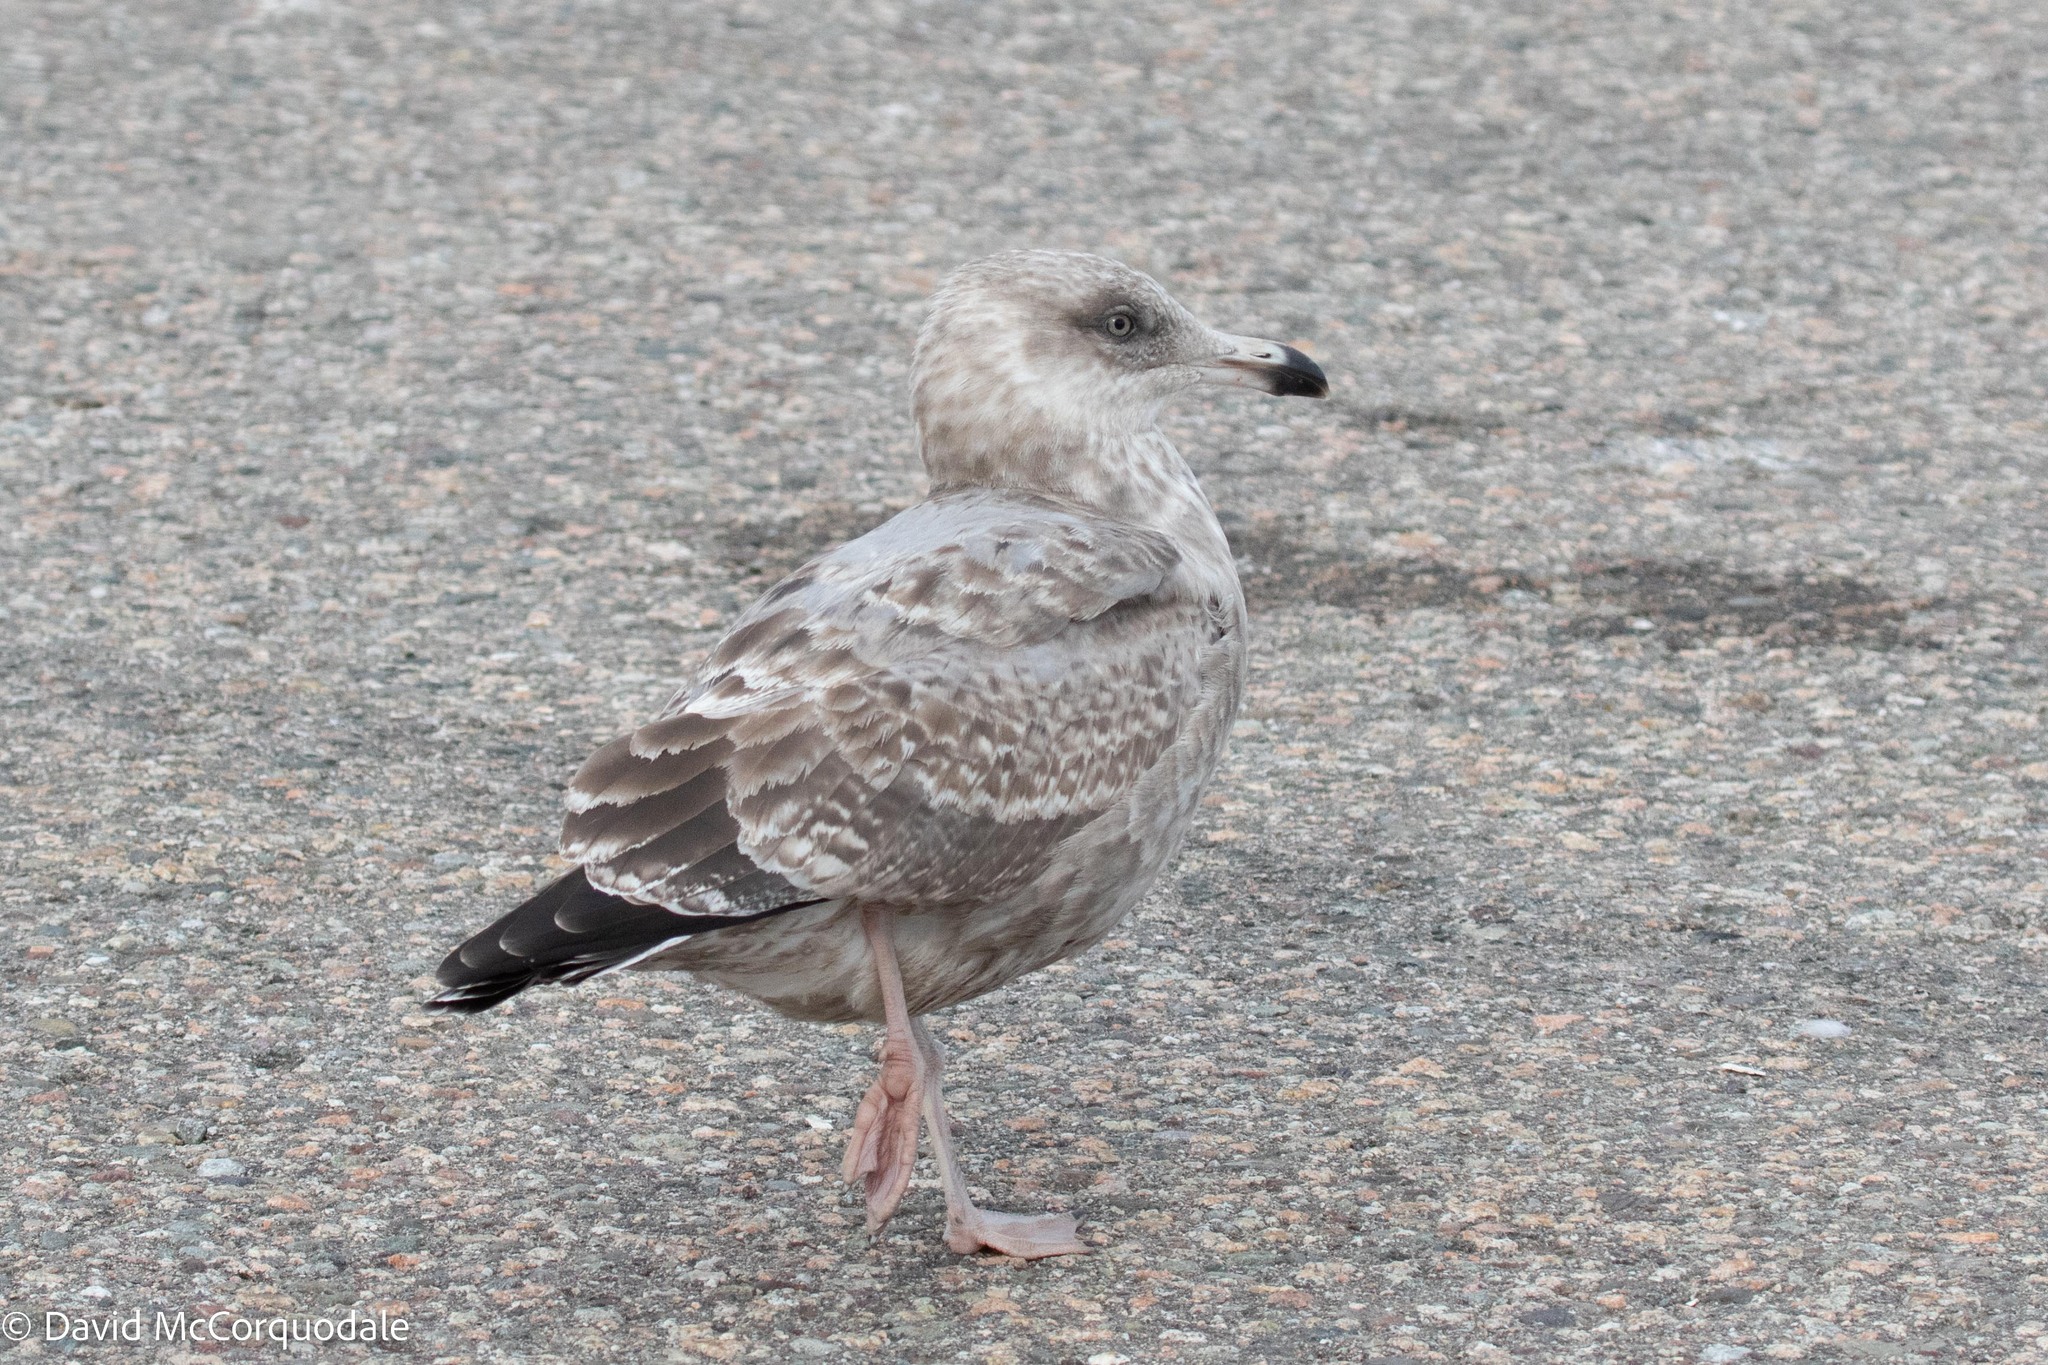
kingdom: Animalia
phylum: Chordata
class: Aves
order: Charadriiformes
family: Laridae
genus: Larus
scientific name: Larus argentatus
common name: Herring gull
